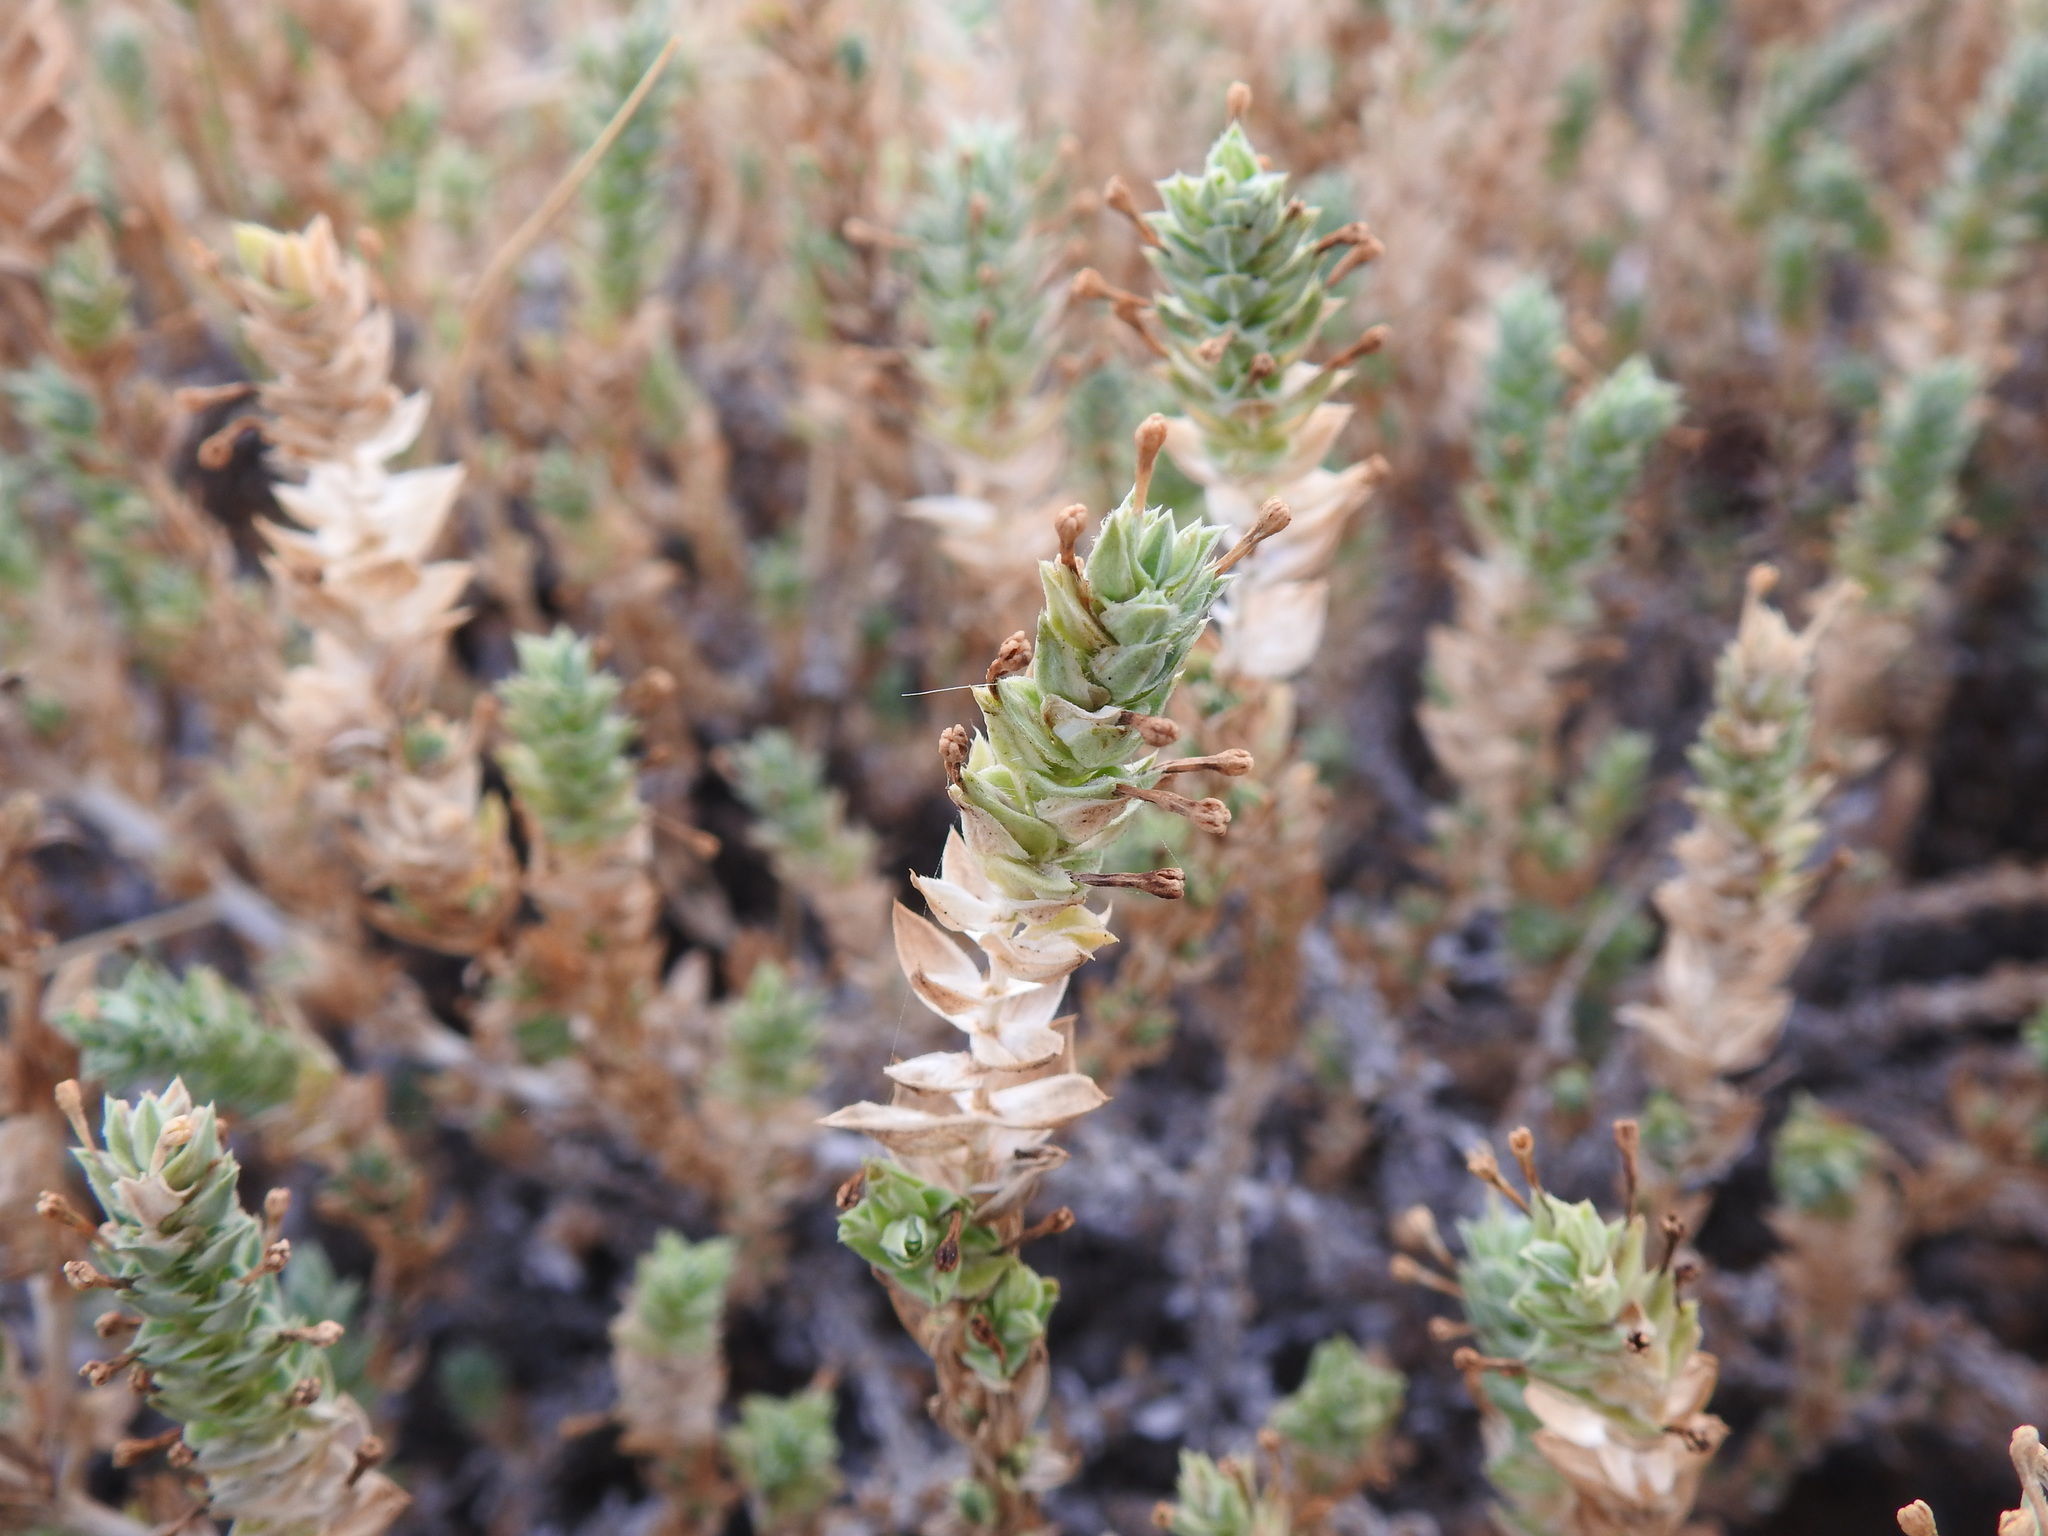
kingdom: Plantae
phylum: Tracheophyta
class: Magnoliopsida
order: Gentianales
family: Rubiaceae
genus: Crucianella
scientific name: Crucianella maritima
